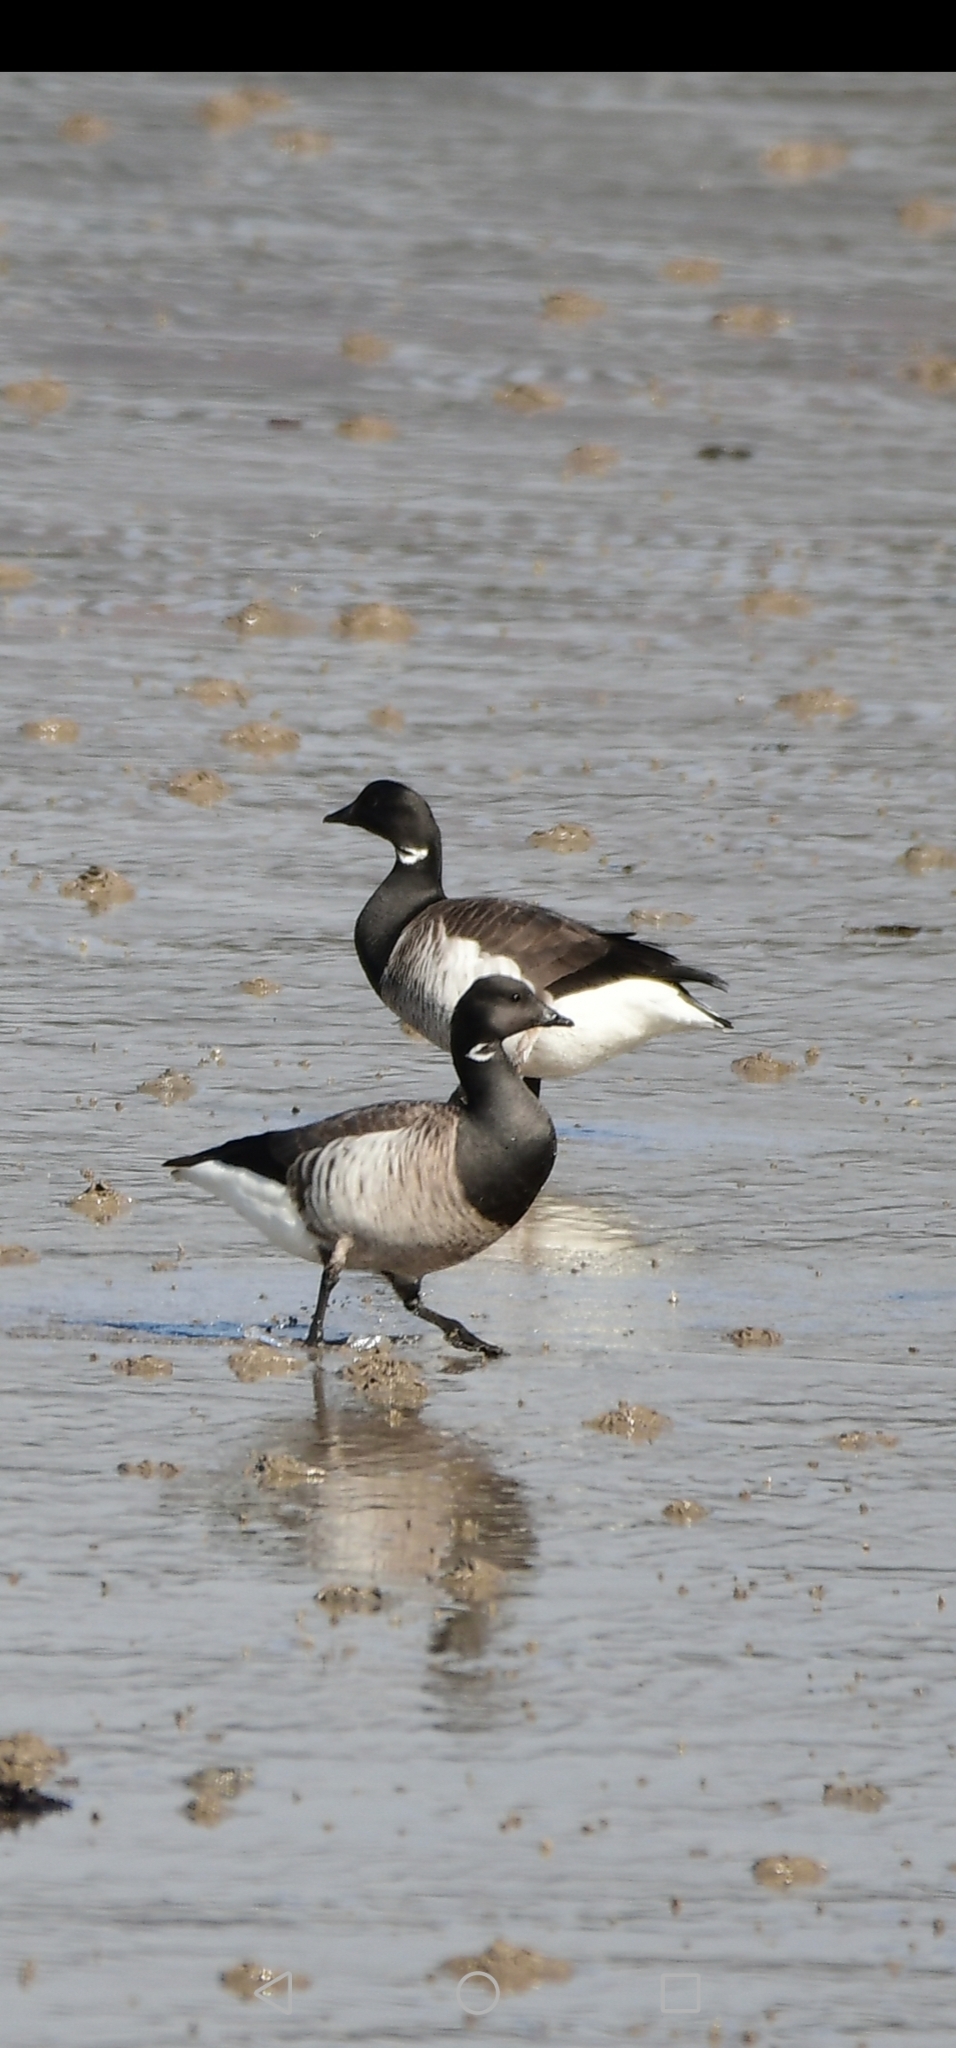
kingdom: Animalia
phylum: Chordata
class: Aves
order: Anseriformes
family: Anatidae
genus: Branta
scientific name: Branta bernicla
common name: Brant goose
